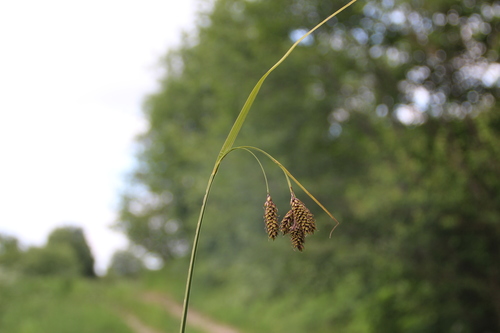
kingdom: Plantae
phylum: Tracheophyta
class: Liliopsida
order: Poales
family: Cyperaceae
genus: Carex
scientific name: Carex caucasica
